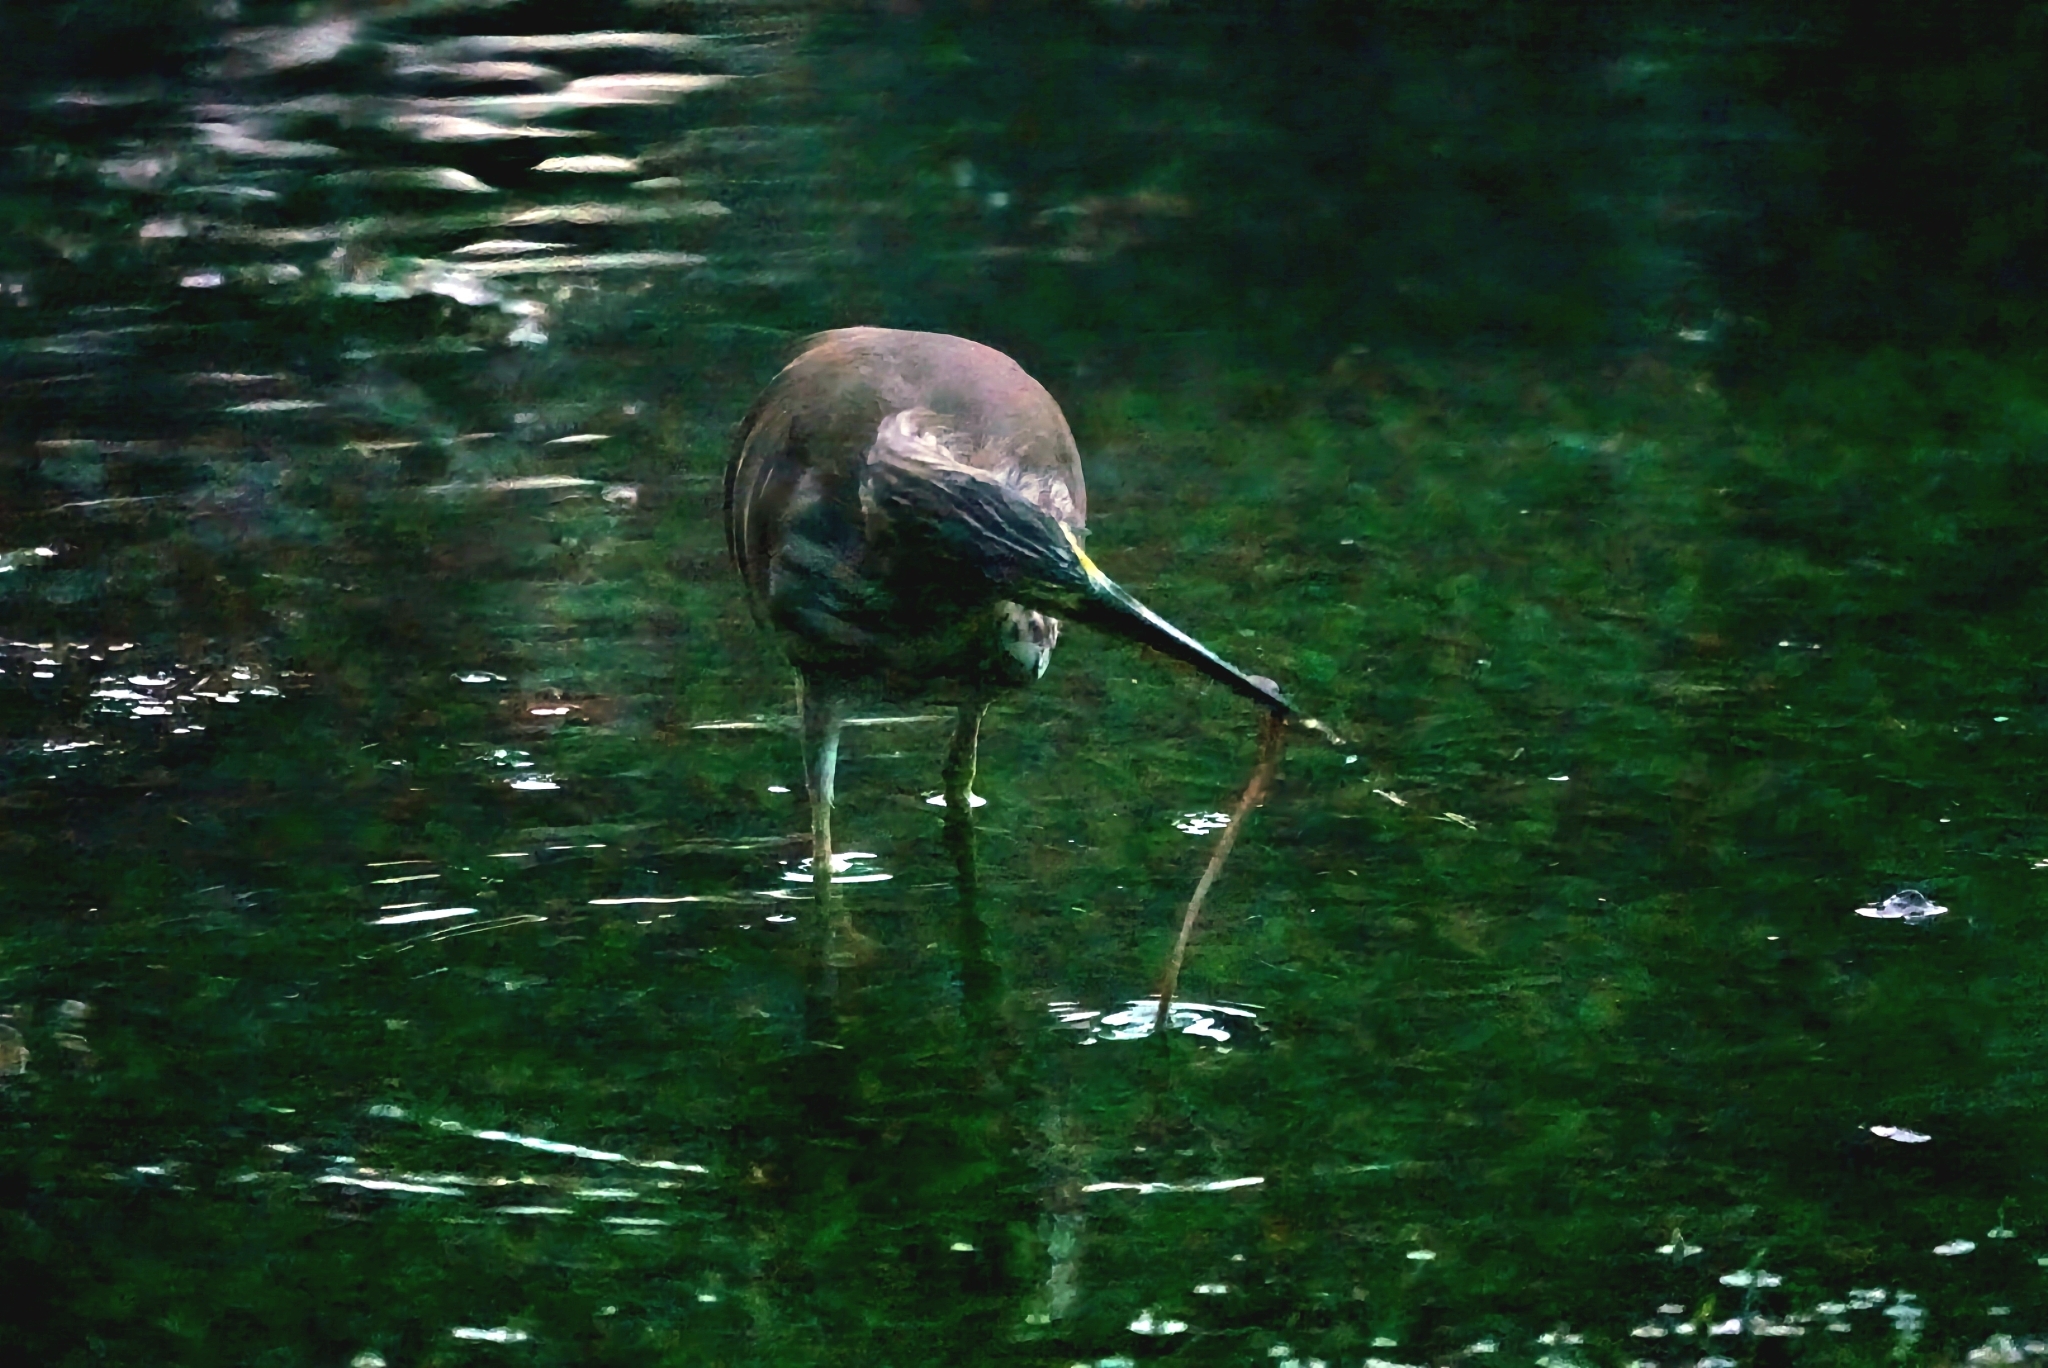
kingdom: Animalia
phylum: Chordata
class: Aves
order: Pelecaniformes
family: Ardeidae
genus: Ardeola
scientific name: Ardeola
